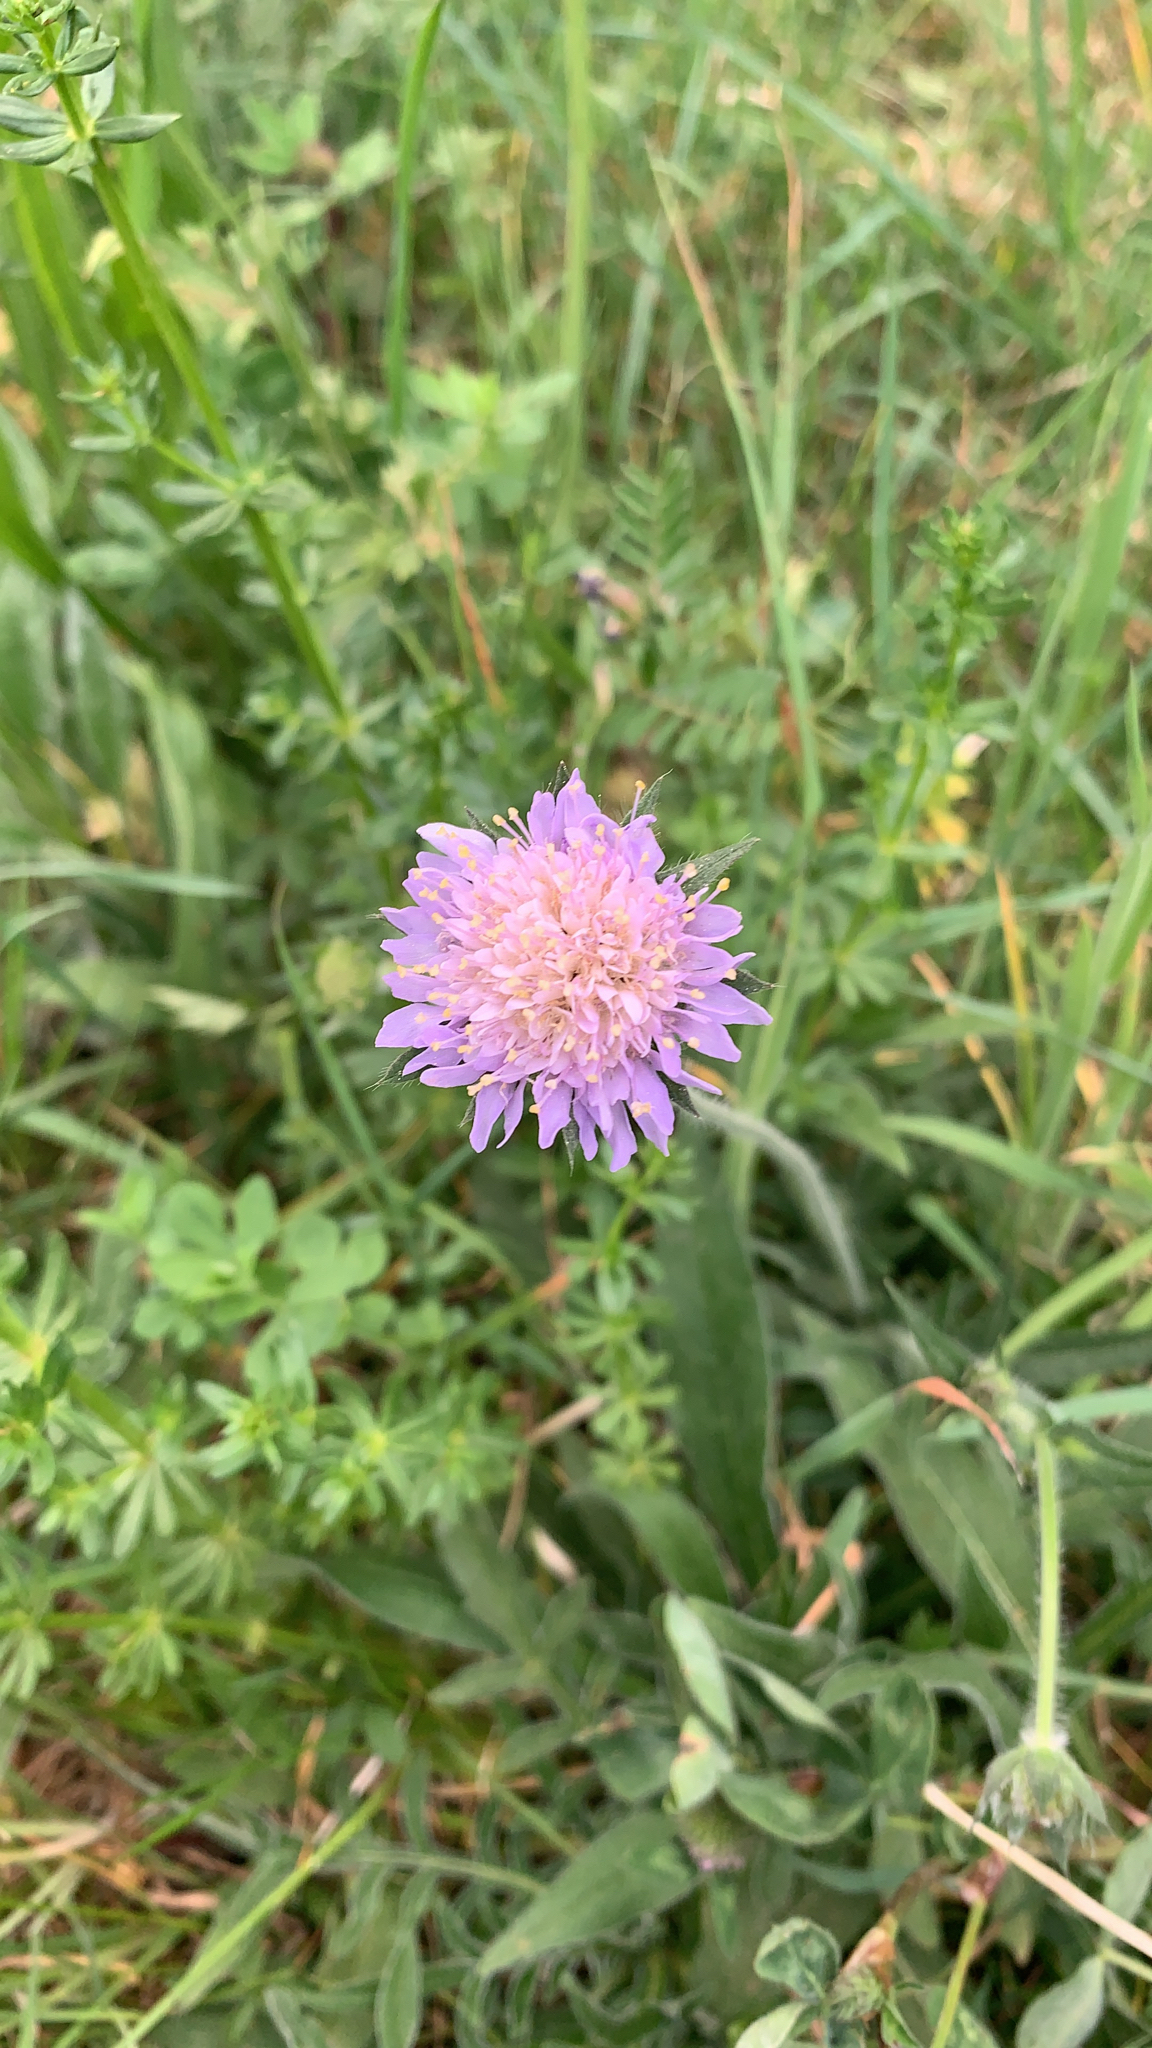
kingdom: Plantae
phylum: Tracheophyta
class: Magnoliopsida
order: Dipsacales
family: Caprifoliaceae
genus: Knautia
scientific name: Knautia arvensis
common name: Field scabiosa
